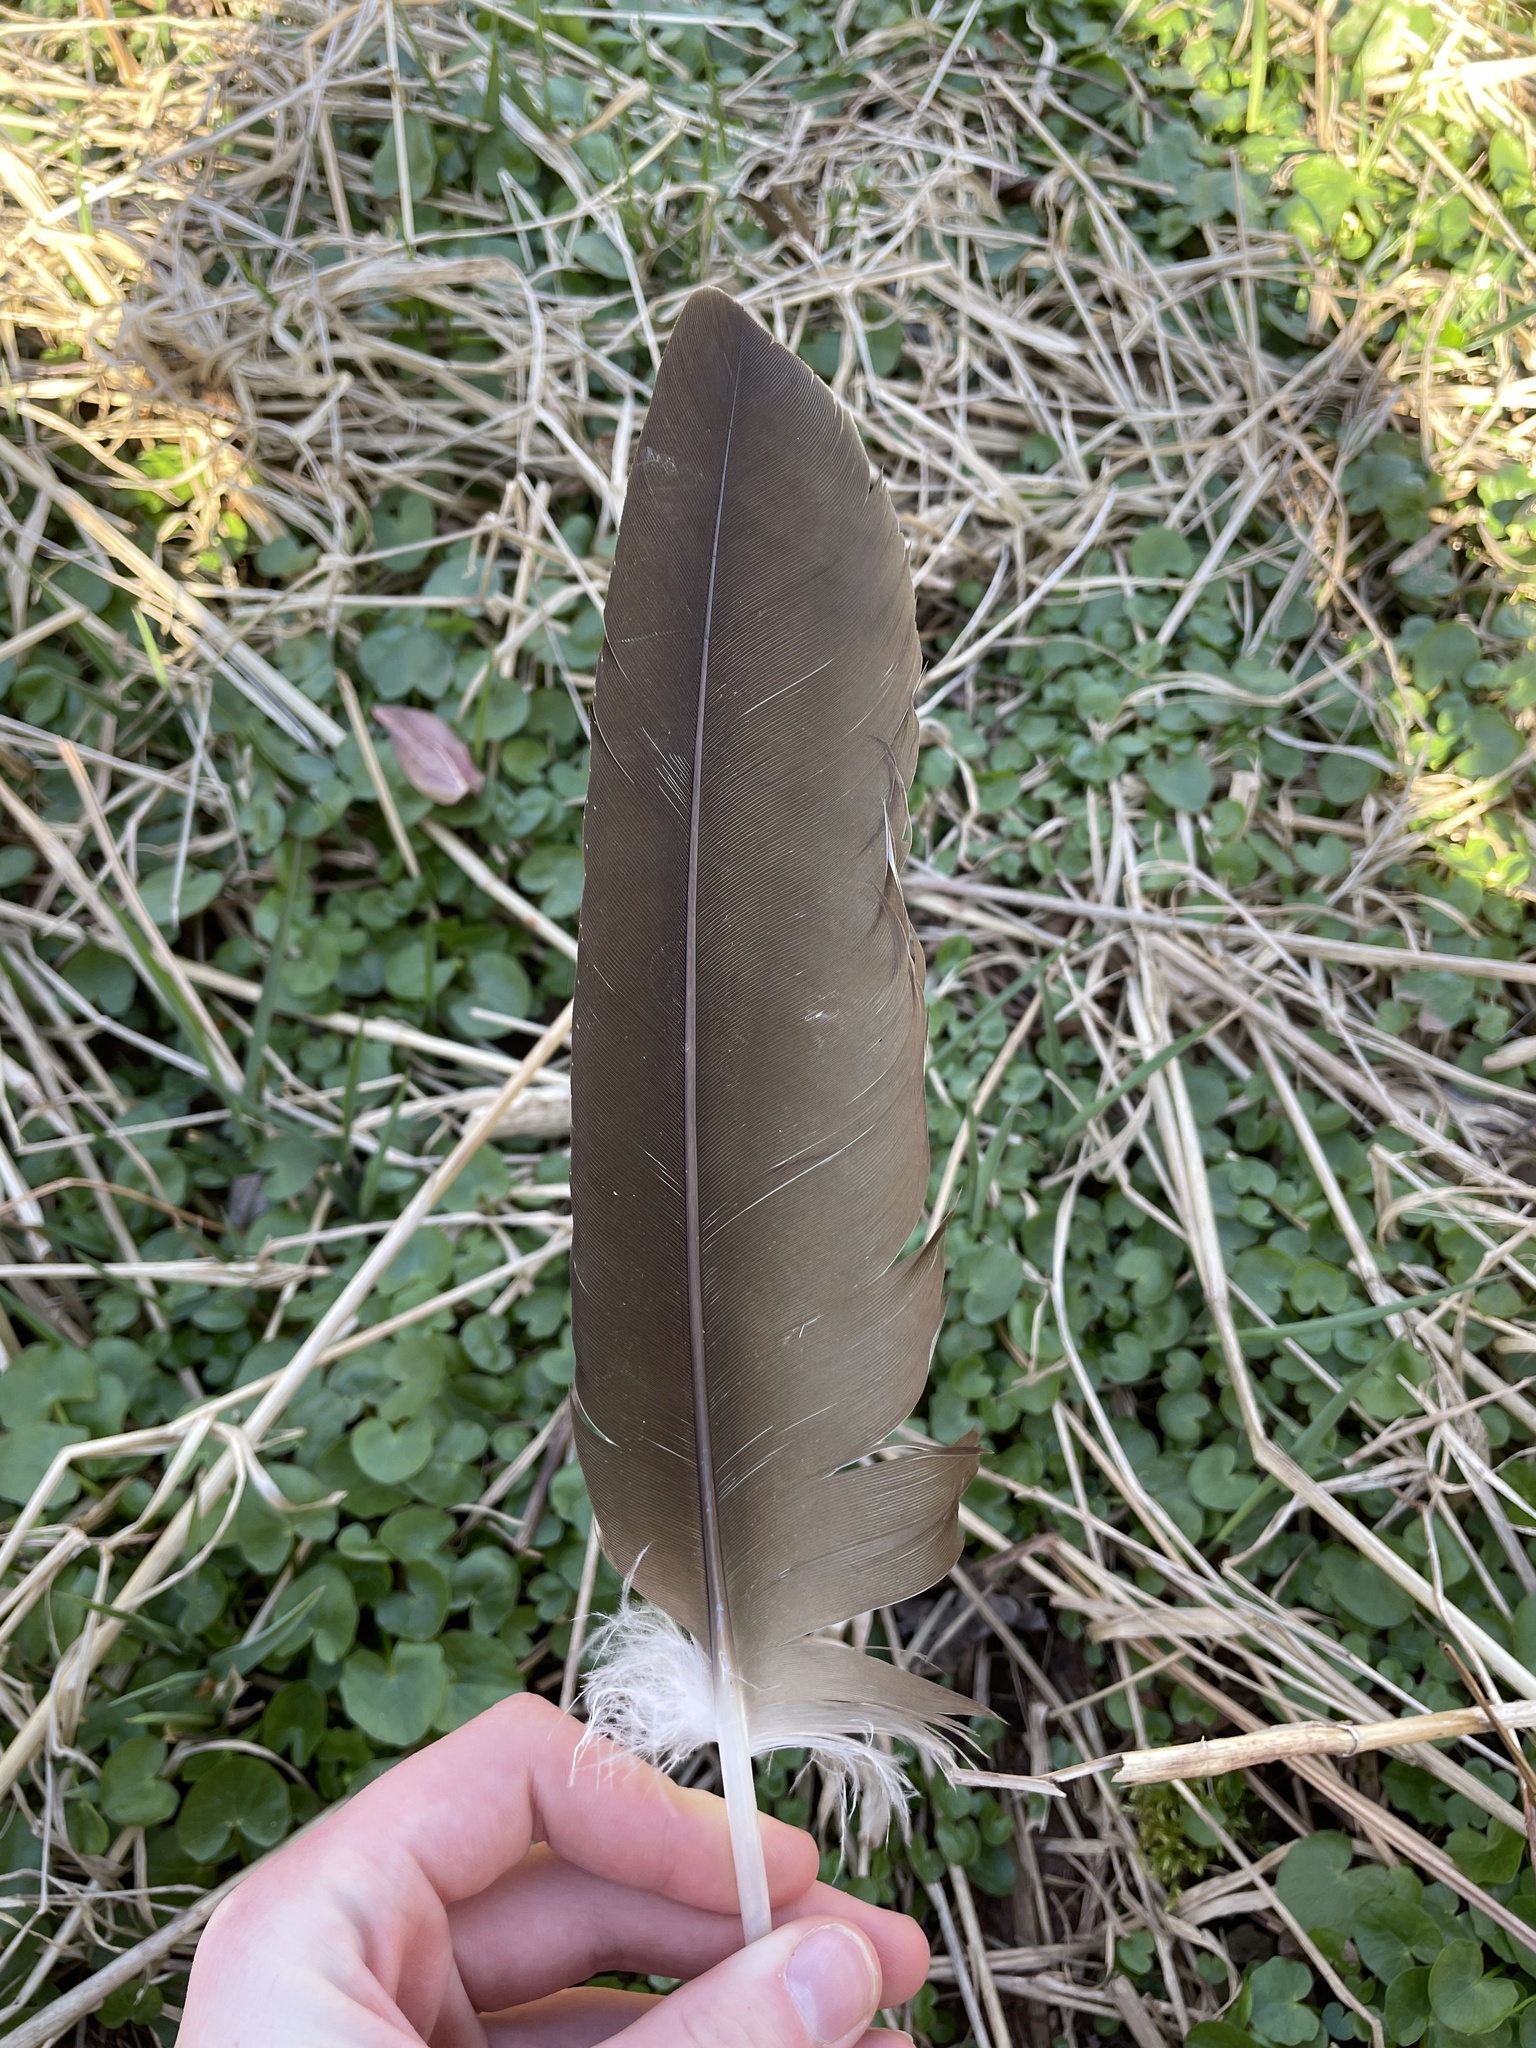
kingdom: Animalia
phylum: Chordata
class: Aves
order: Anseriformes
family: Anatidae
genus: Branta
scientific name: Branta canadensis
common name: Canada goose
